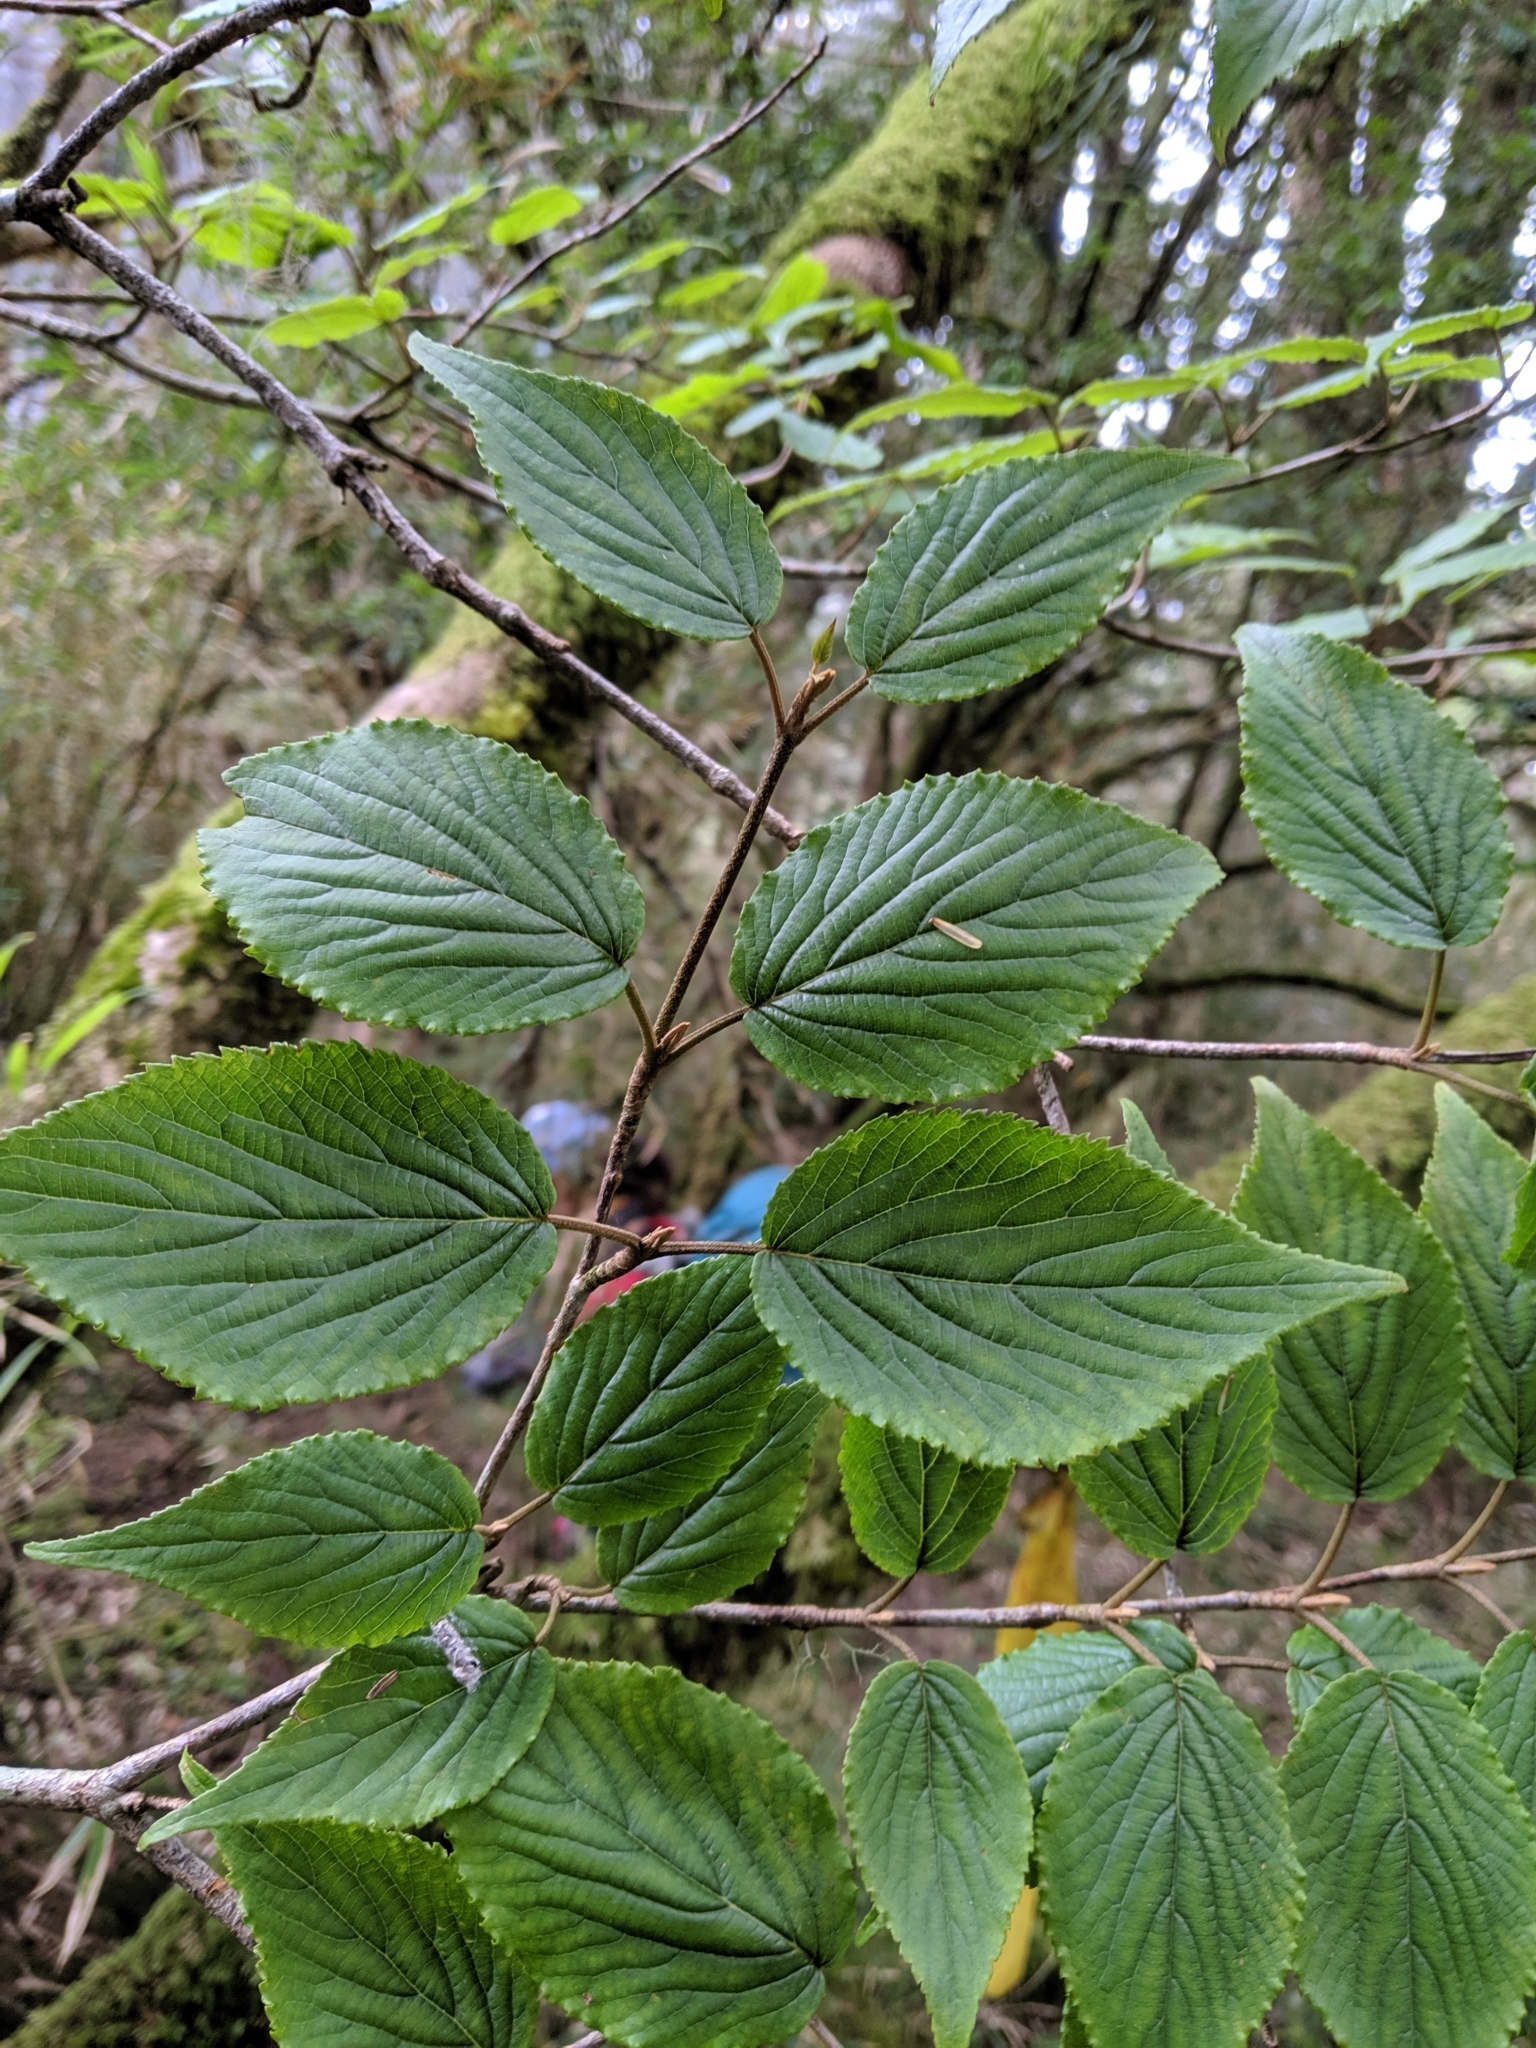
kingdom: Plantae
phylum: Tracheophyta
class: Magnoliopsida
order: Dipsacales
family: Viburnaceae
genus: Viburnum
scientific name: Viburnum furcatum
